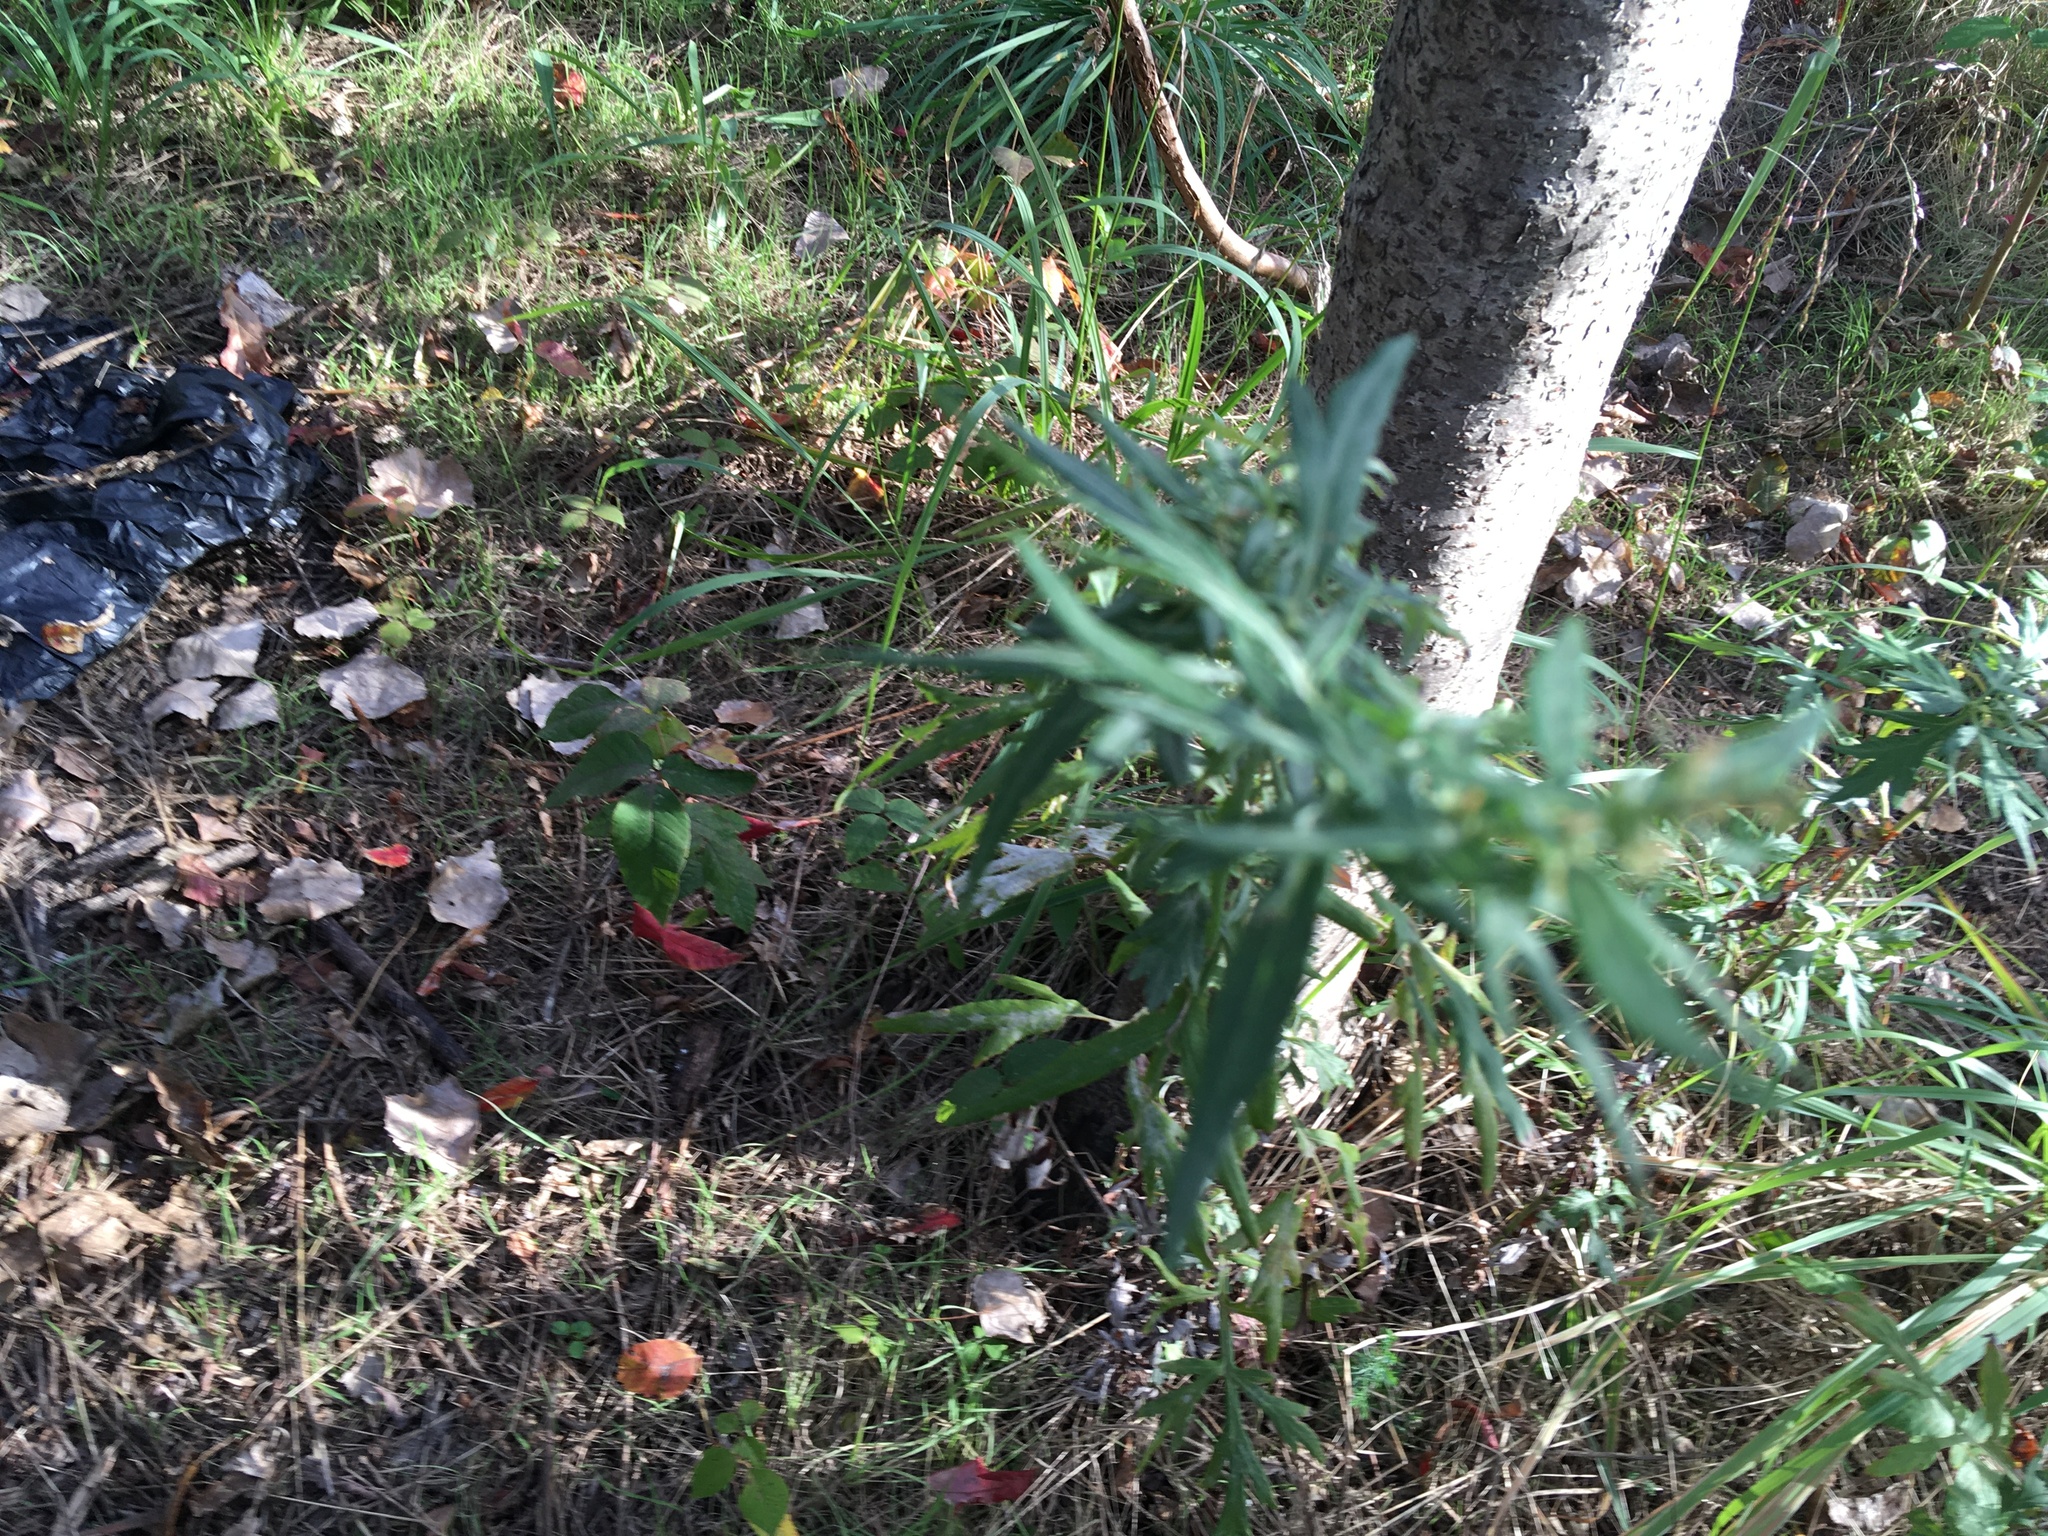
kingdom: Plantae
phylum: Tracheophyta
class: Magnoliopsida
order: Asterales
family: Asteraceae
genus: Artemisia
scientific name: Artemisia vulgaris
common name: Mugwort
